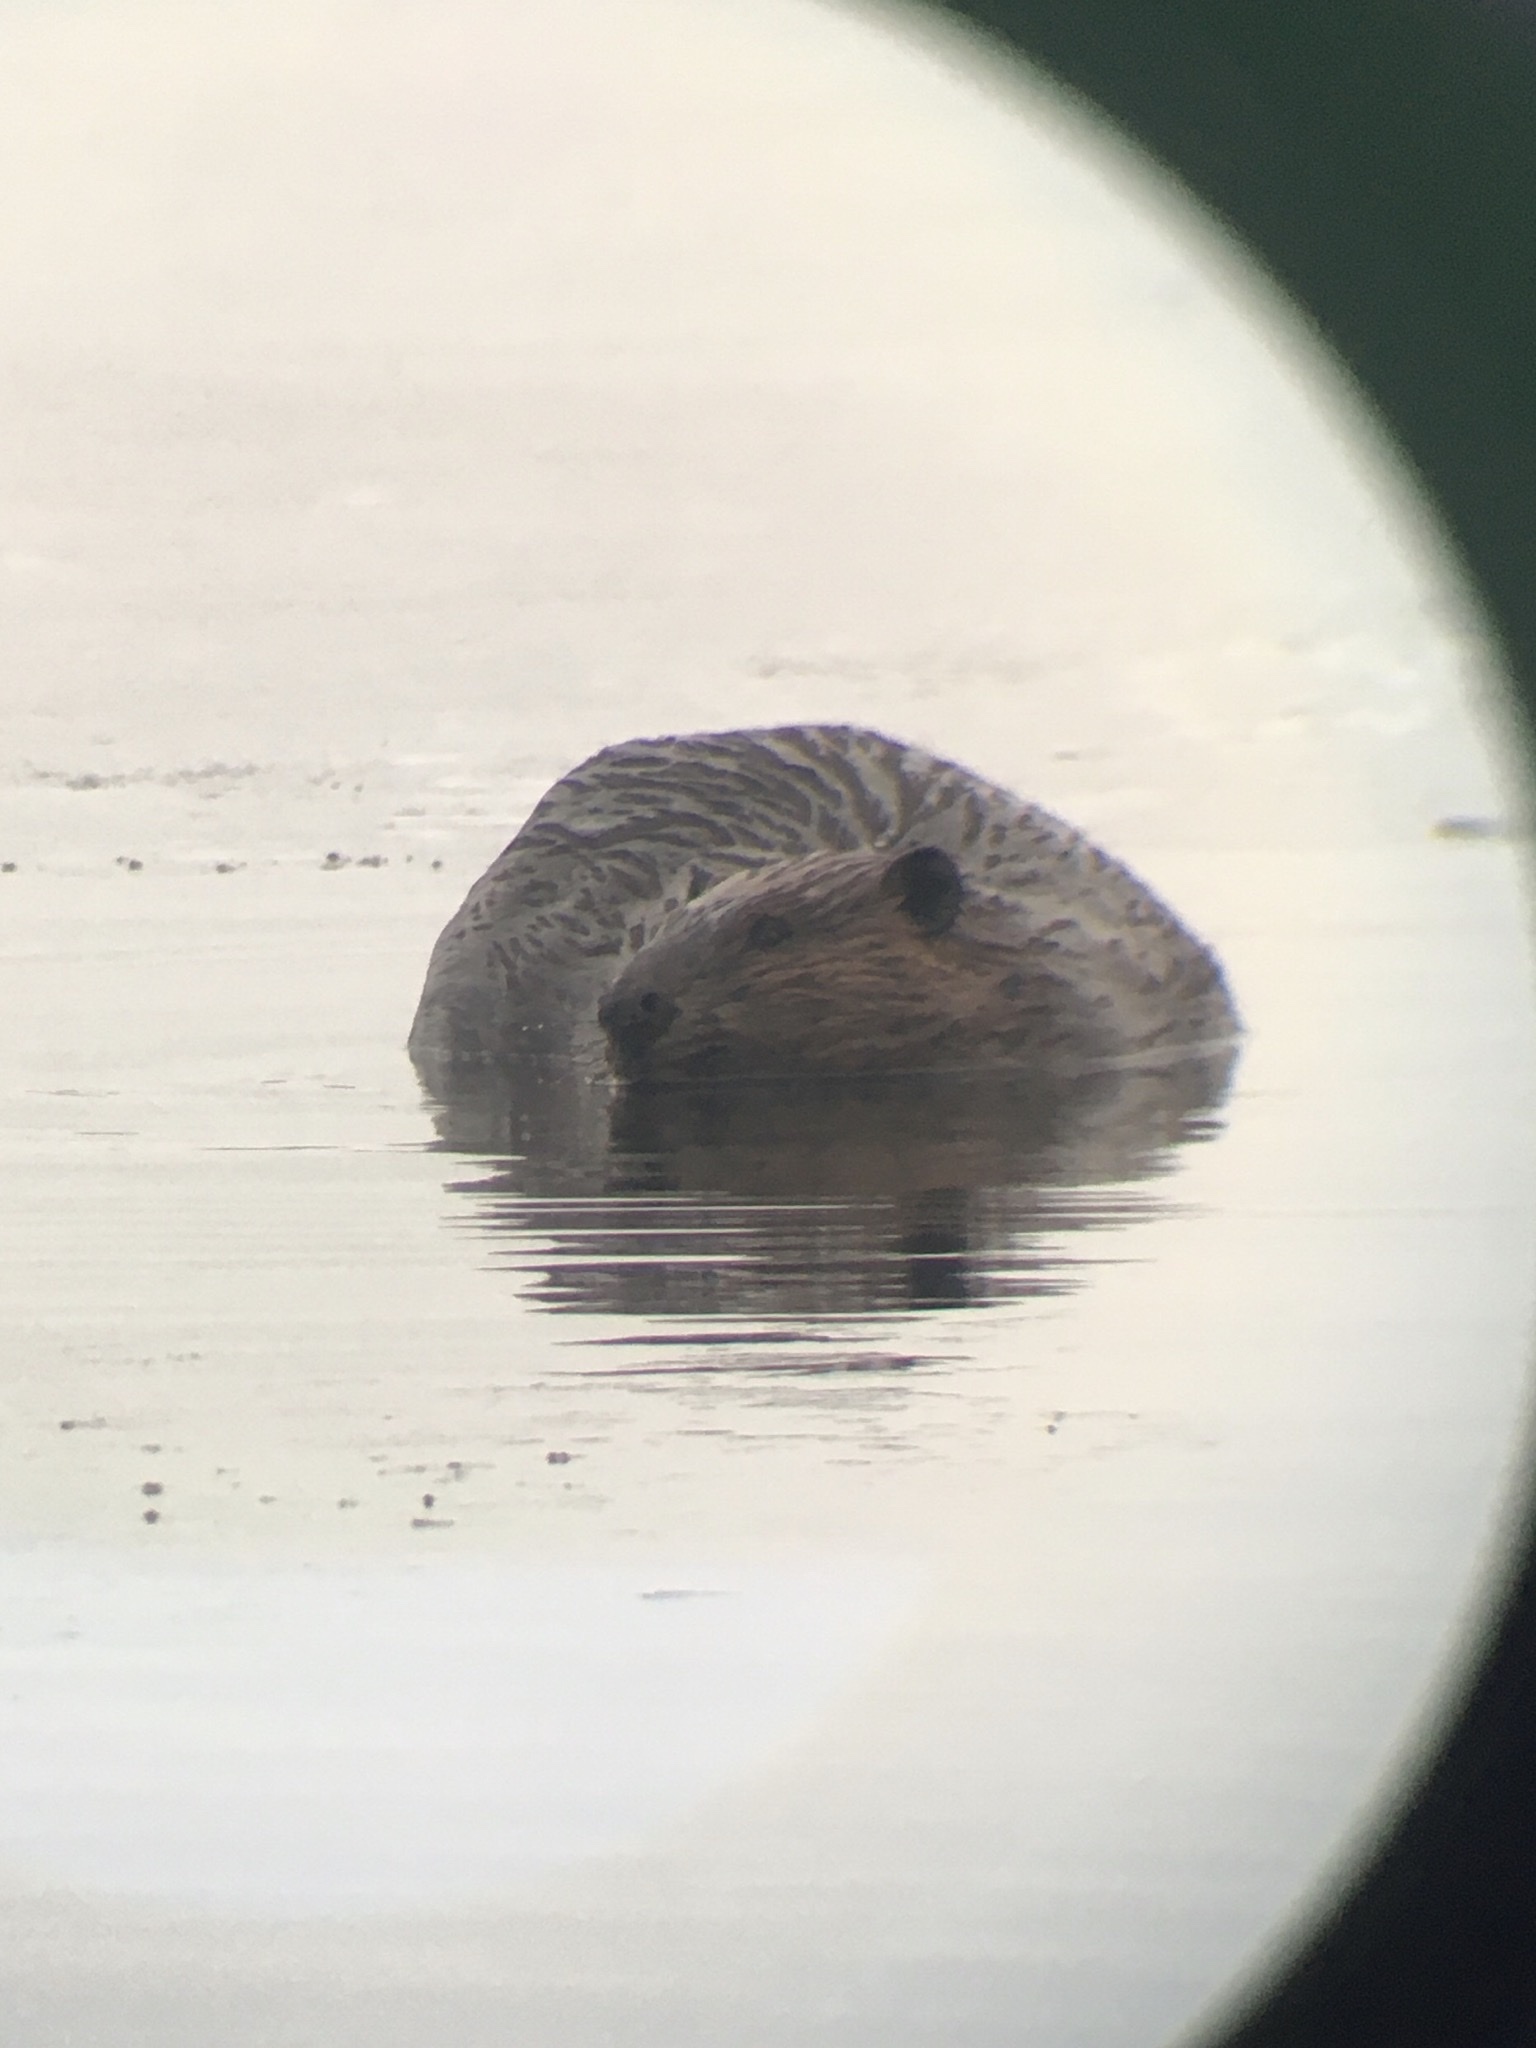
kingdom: Animalia
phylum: Chordata
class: Mammalia
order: Rodentia
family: Castoridae
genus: Castor
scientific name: Castor canadensis
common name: American beaver
